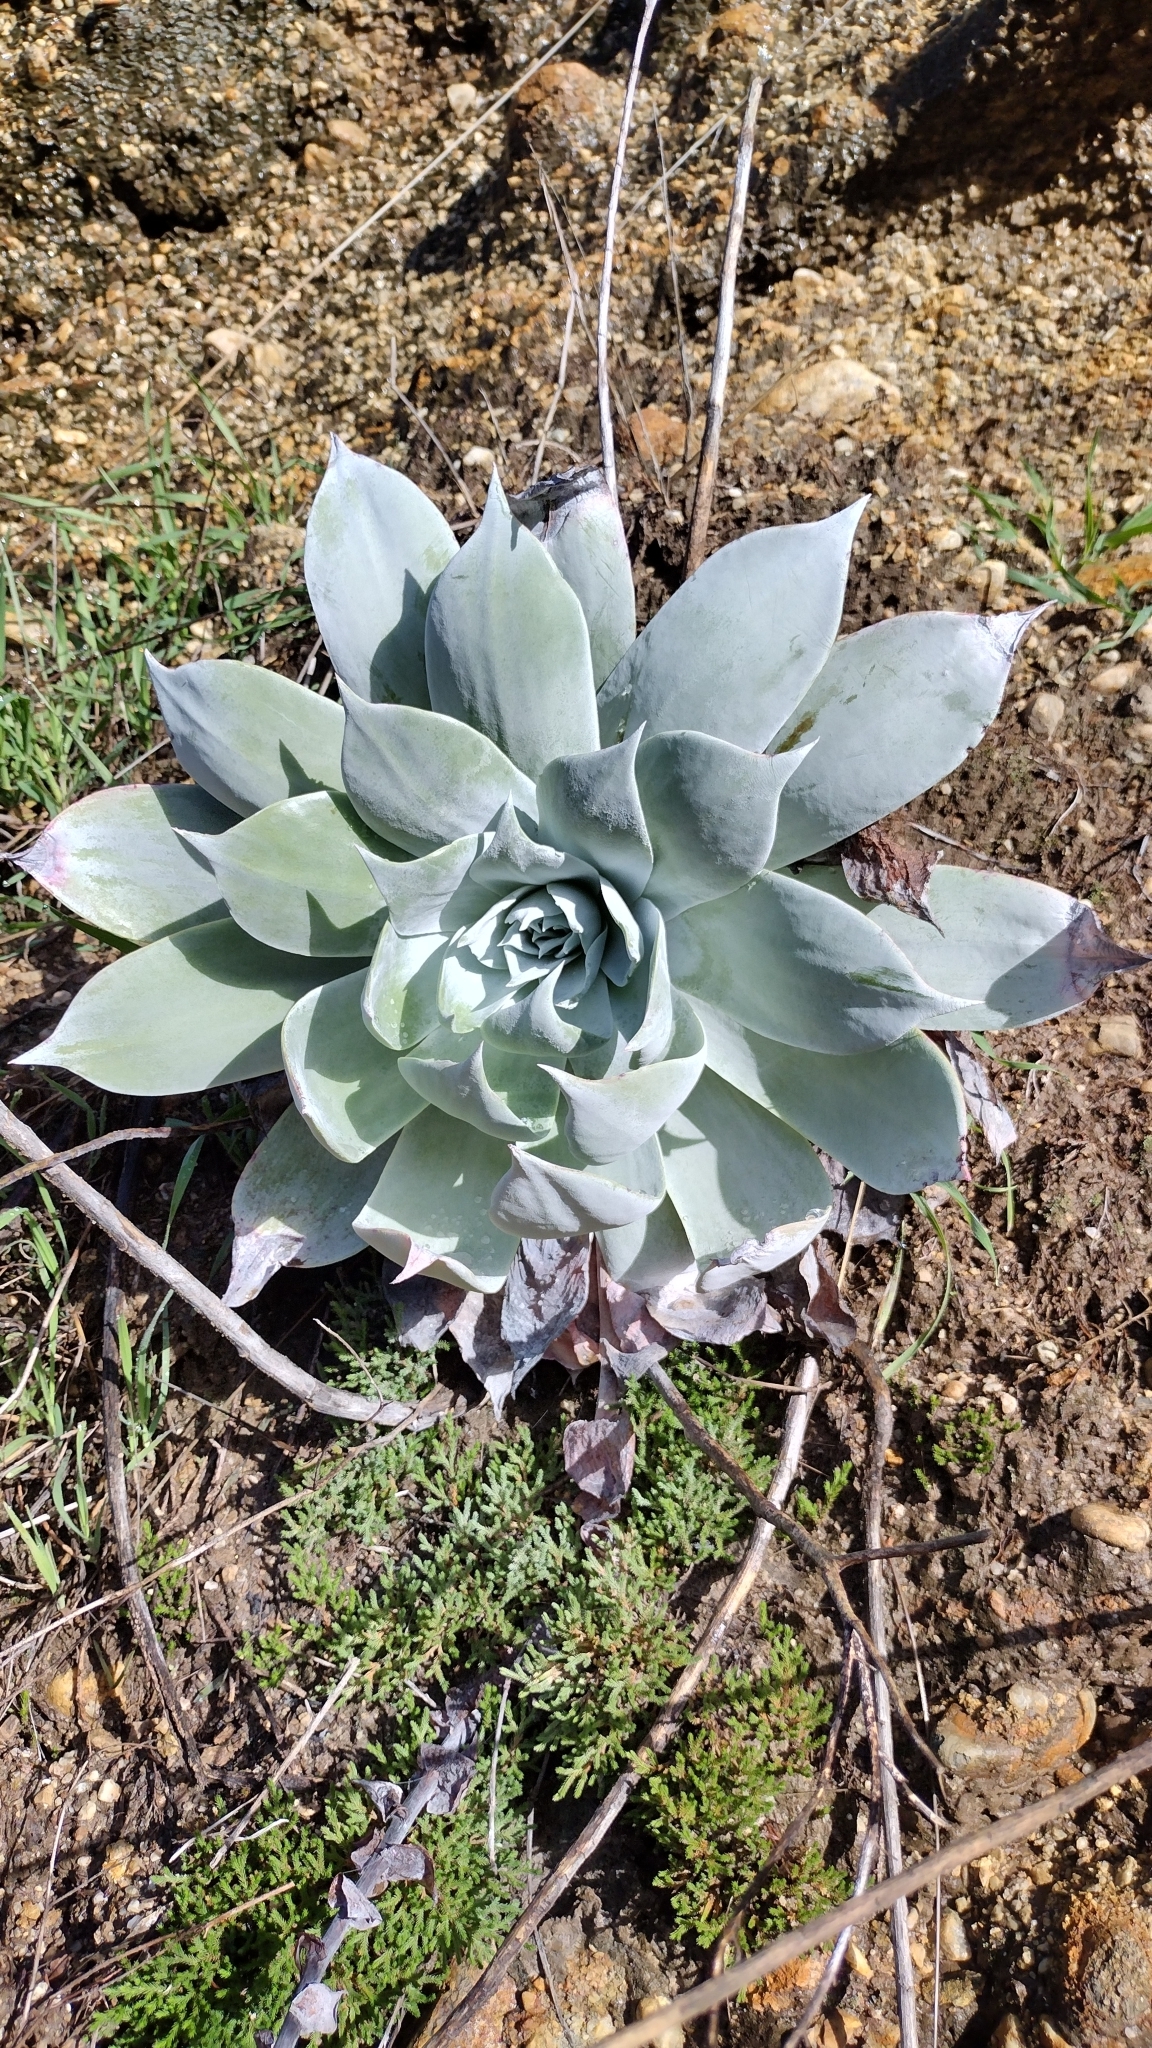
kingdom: Plantae
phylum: Tracheophyta
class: Magnoliopsida
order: Saxifragales
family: Crassulaceae
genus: Dudleya
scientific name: Dudleya pulverulenta
